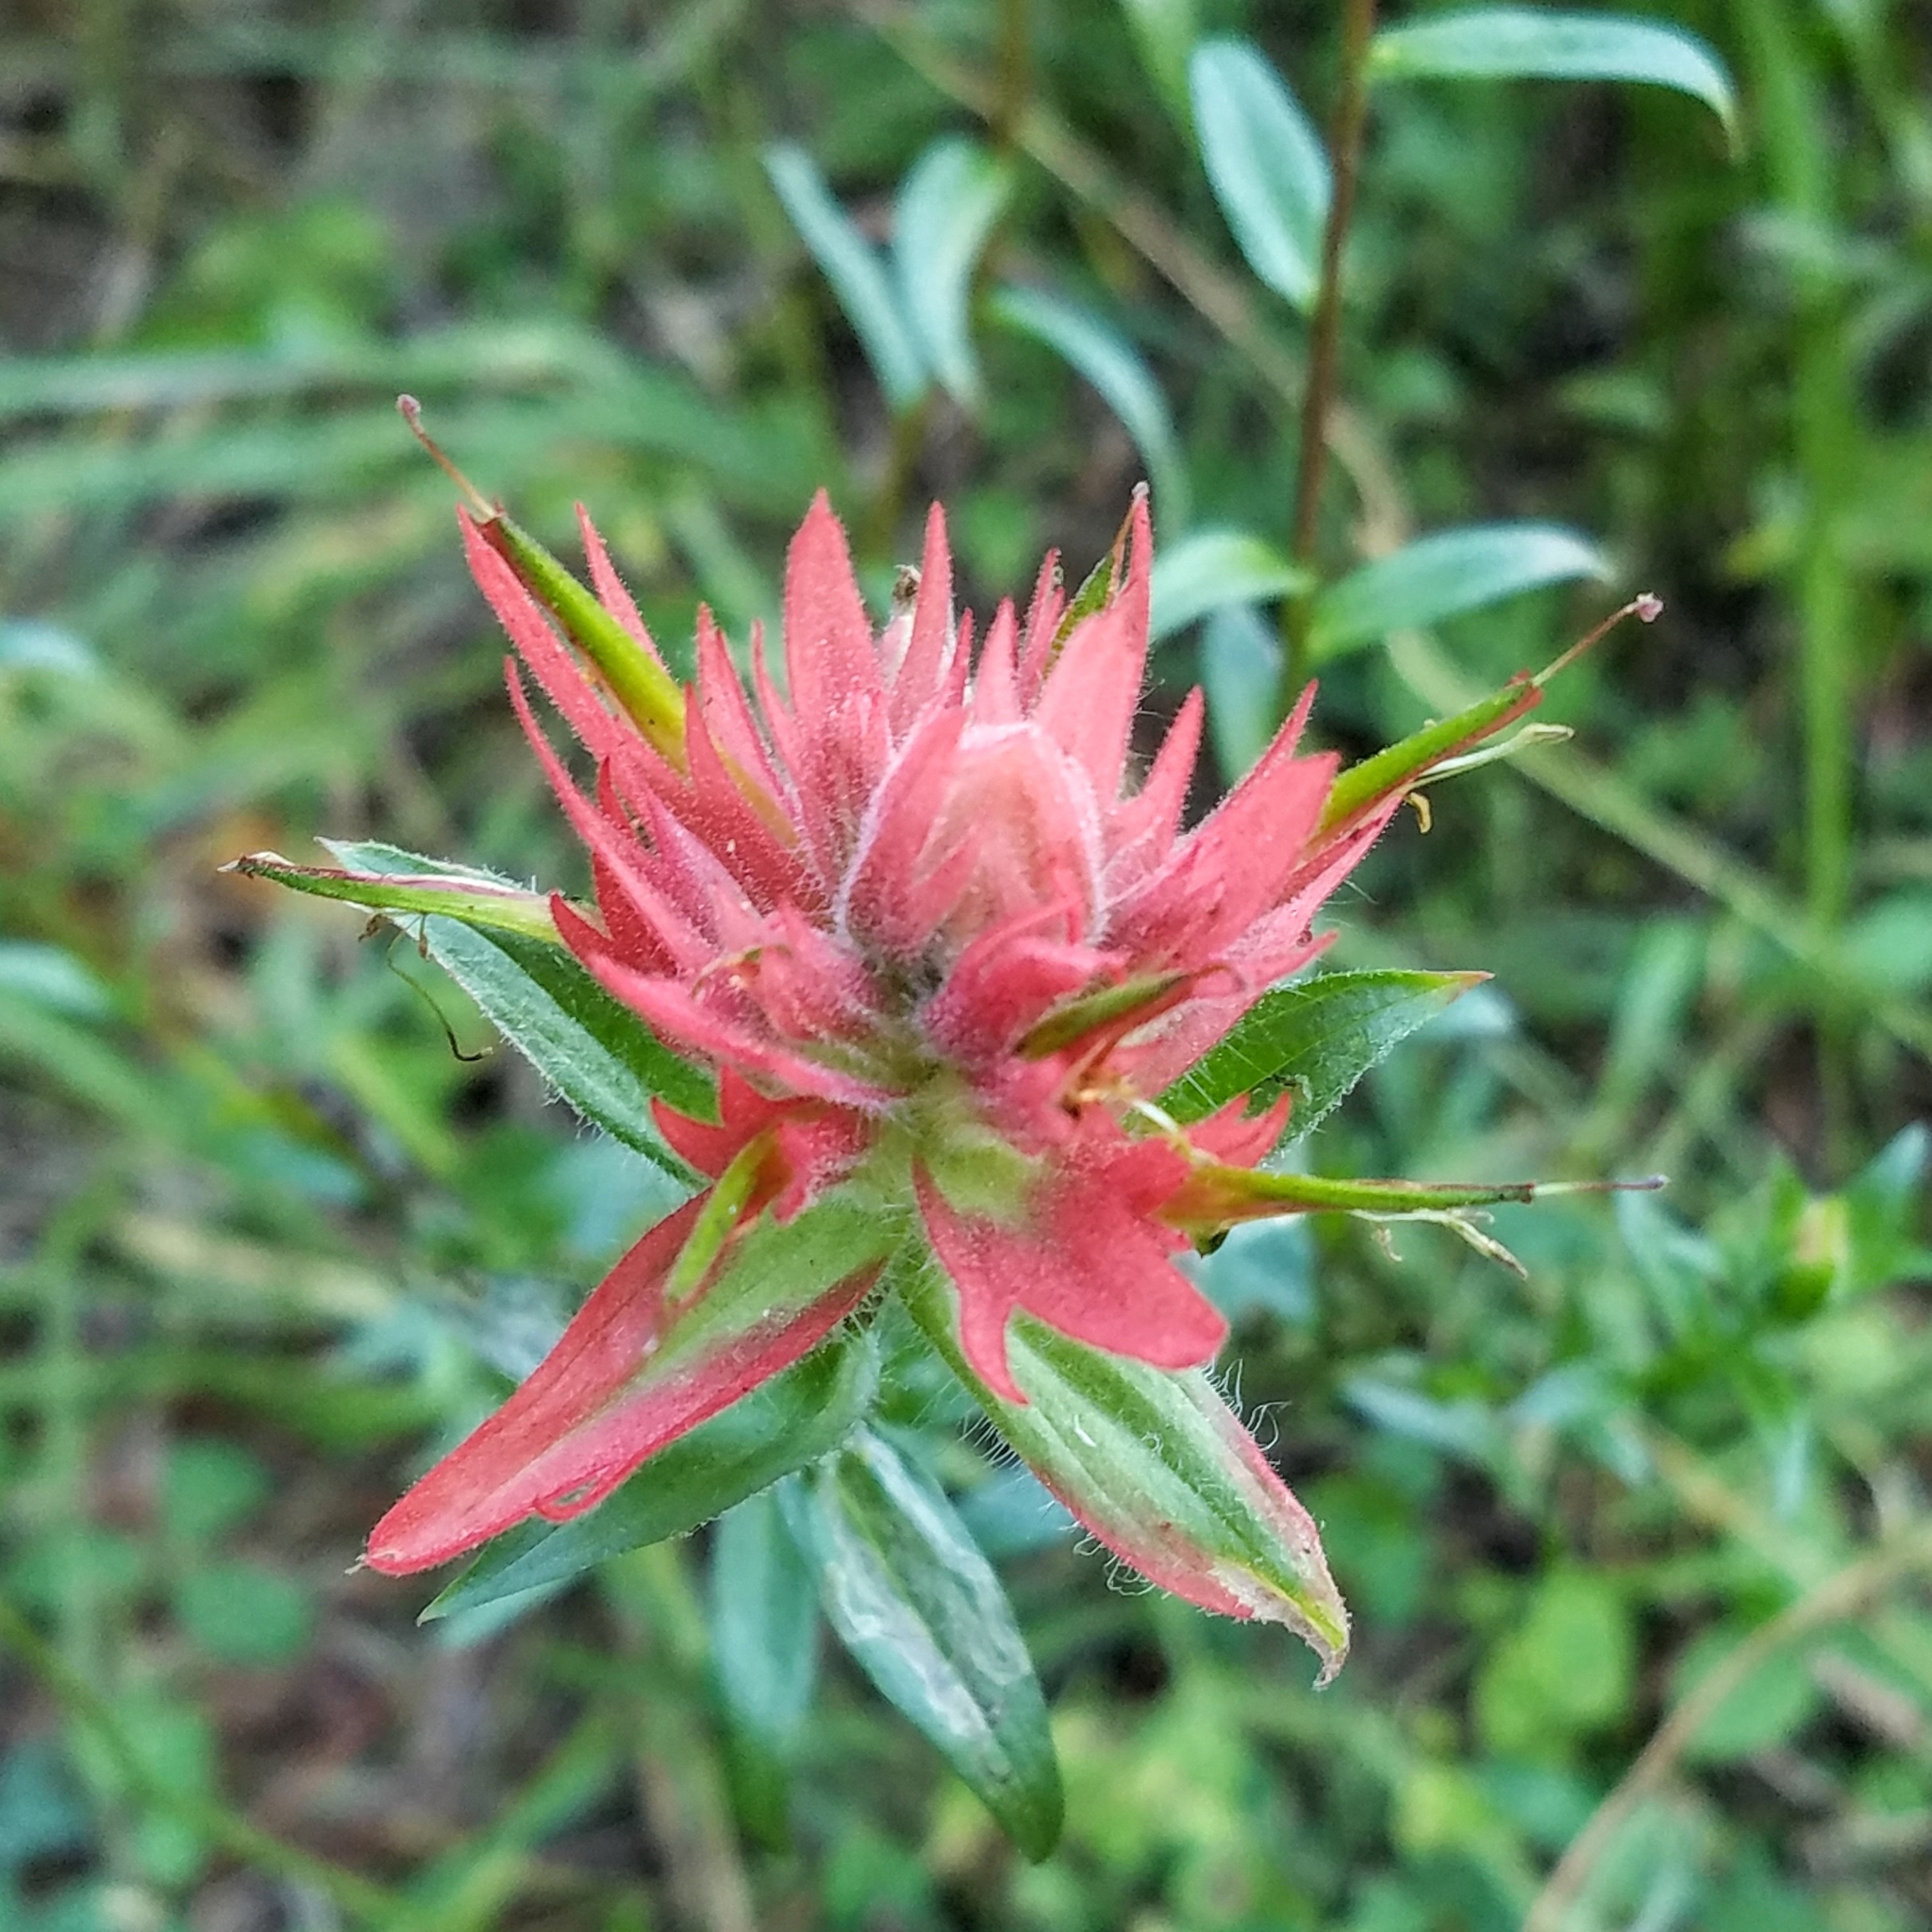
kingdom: Plantae
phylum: Tracheophyta
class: Magnoliopsida
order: Lamiales
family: Orobanchaceae
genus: Castilleja
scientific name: Castilleja miniata
